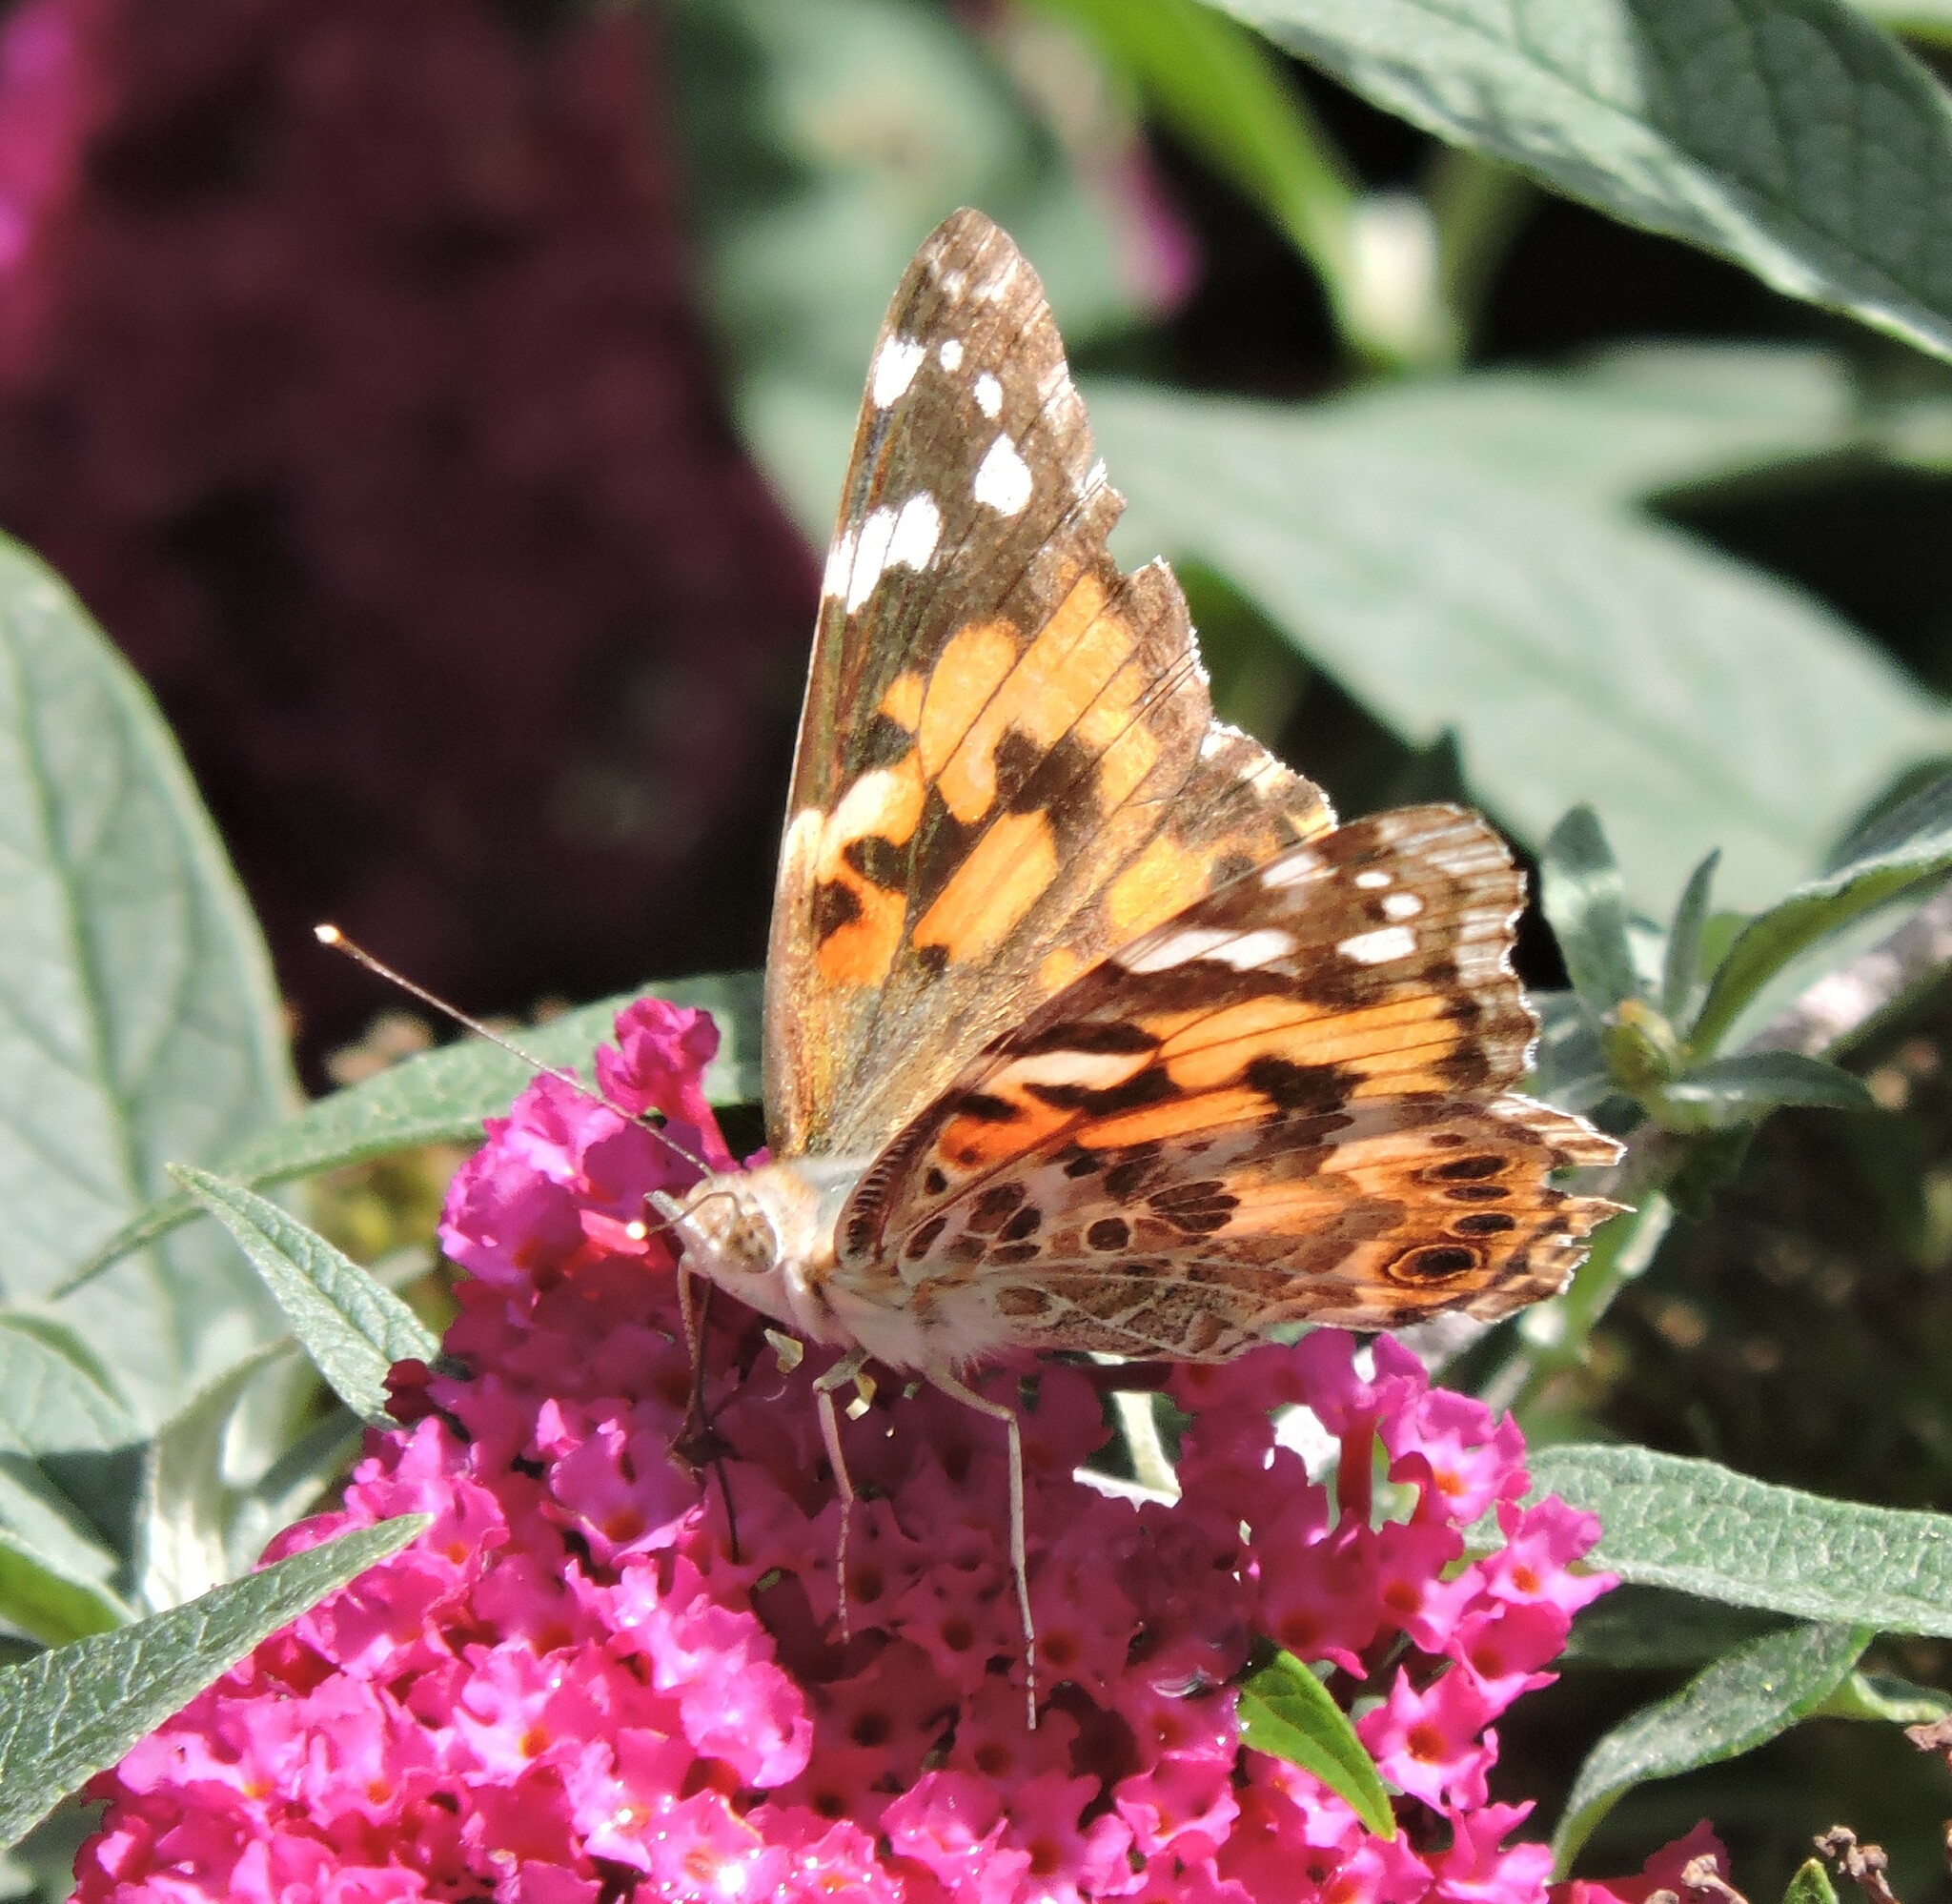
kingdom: Animalia
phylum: Arthropoda
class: Insecta
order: Lepidoptera
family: Nymphalidae
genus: Vanessa
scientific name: Vanessa cardui
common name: Painted lady
